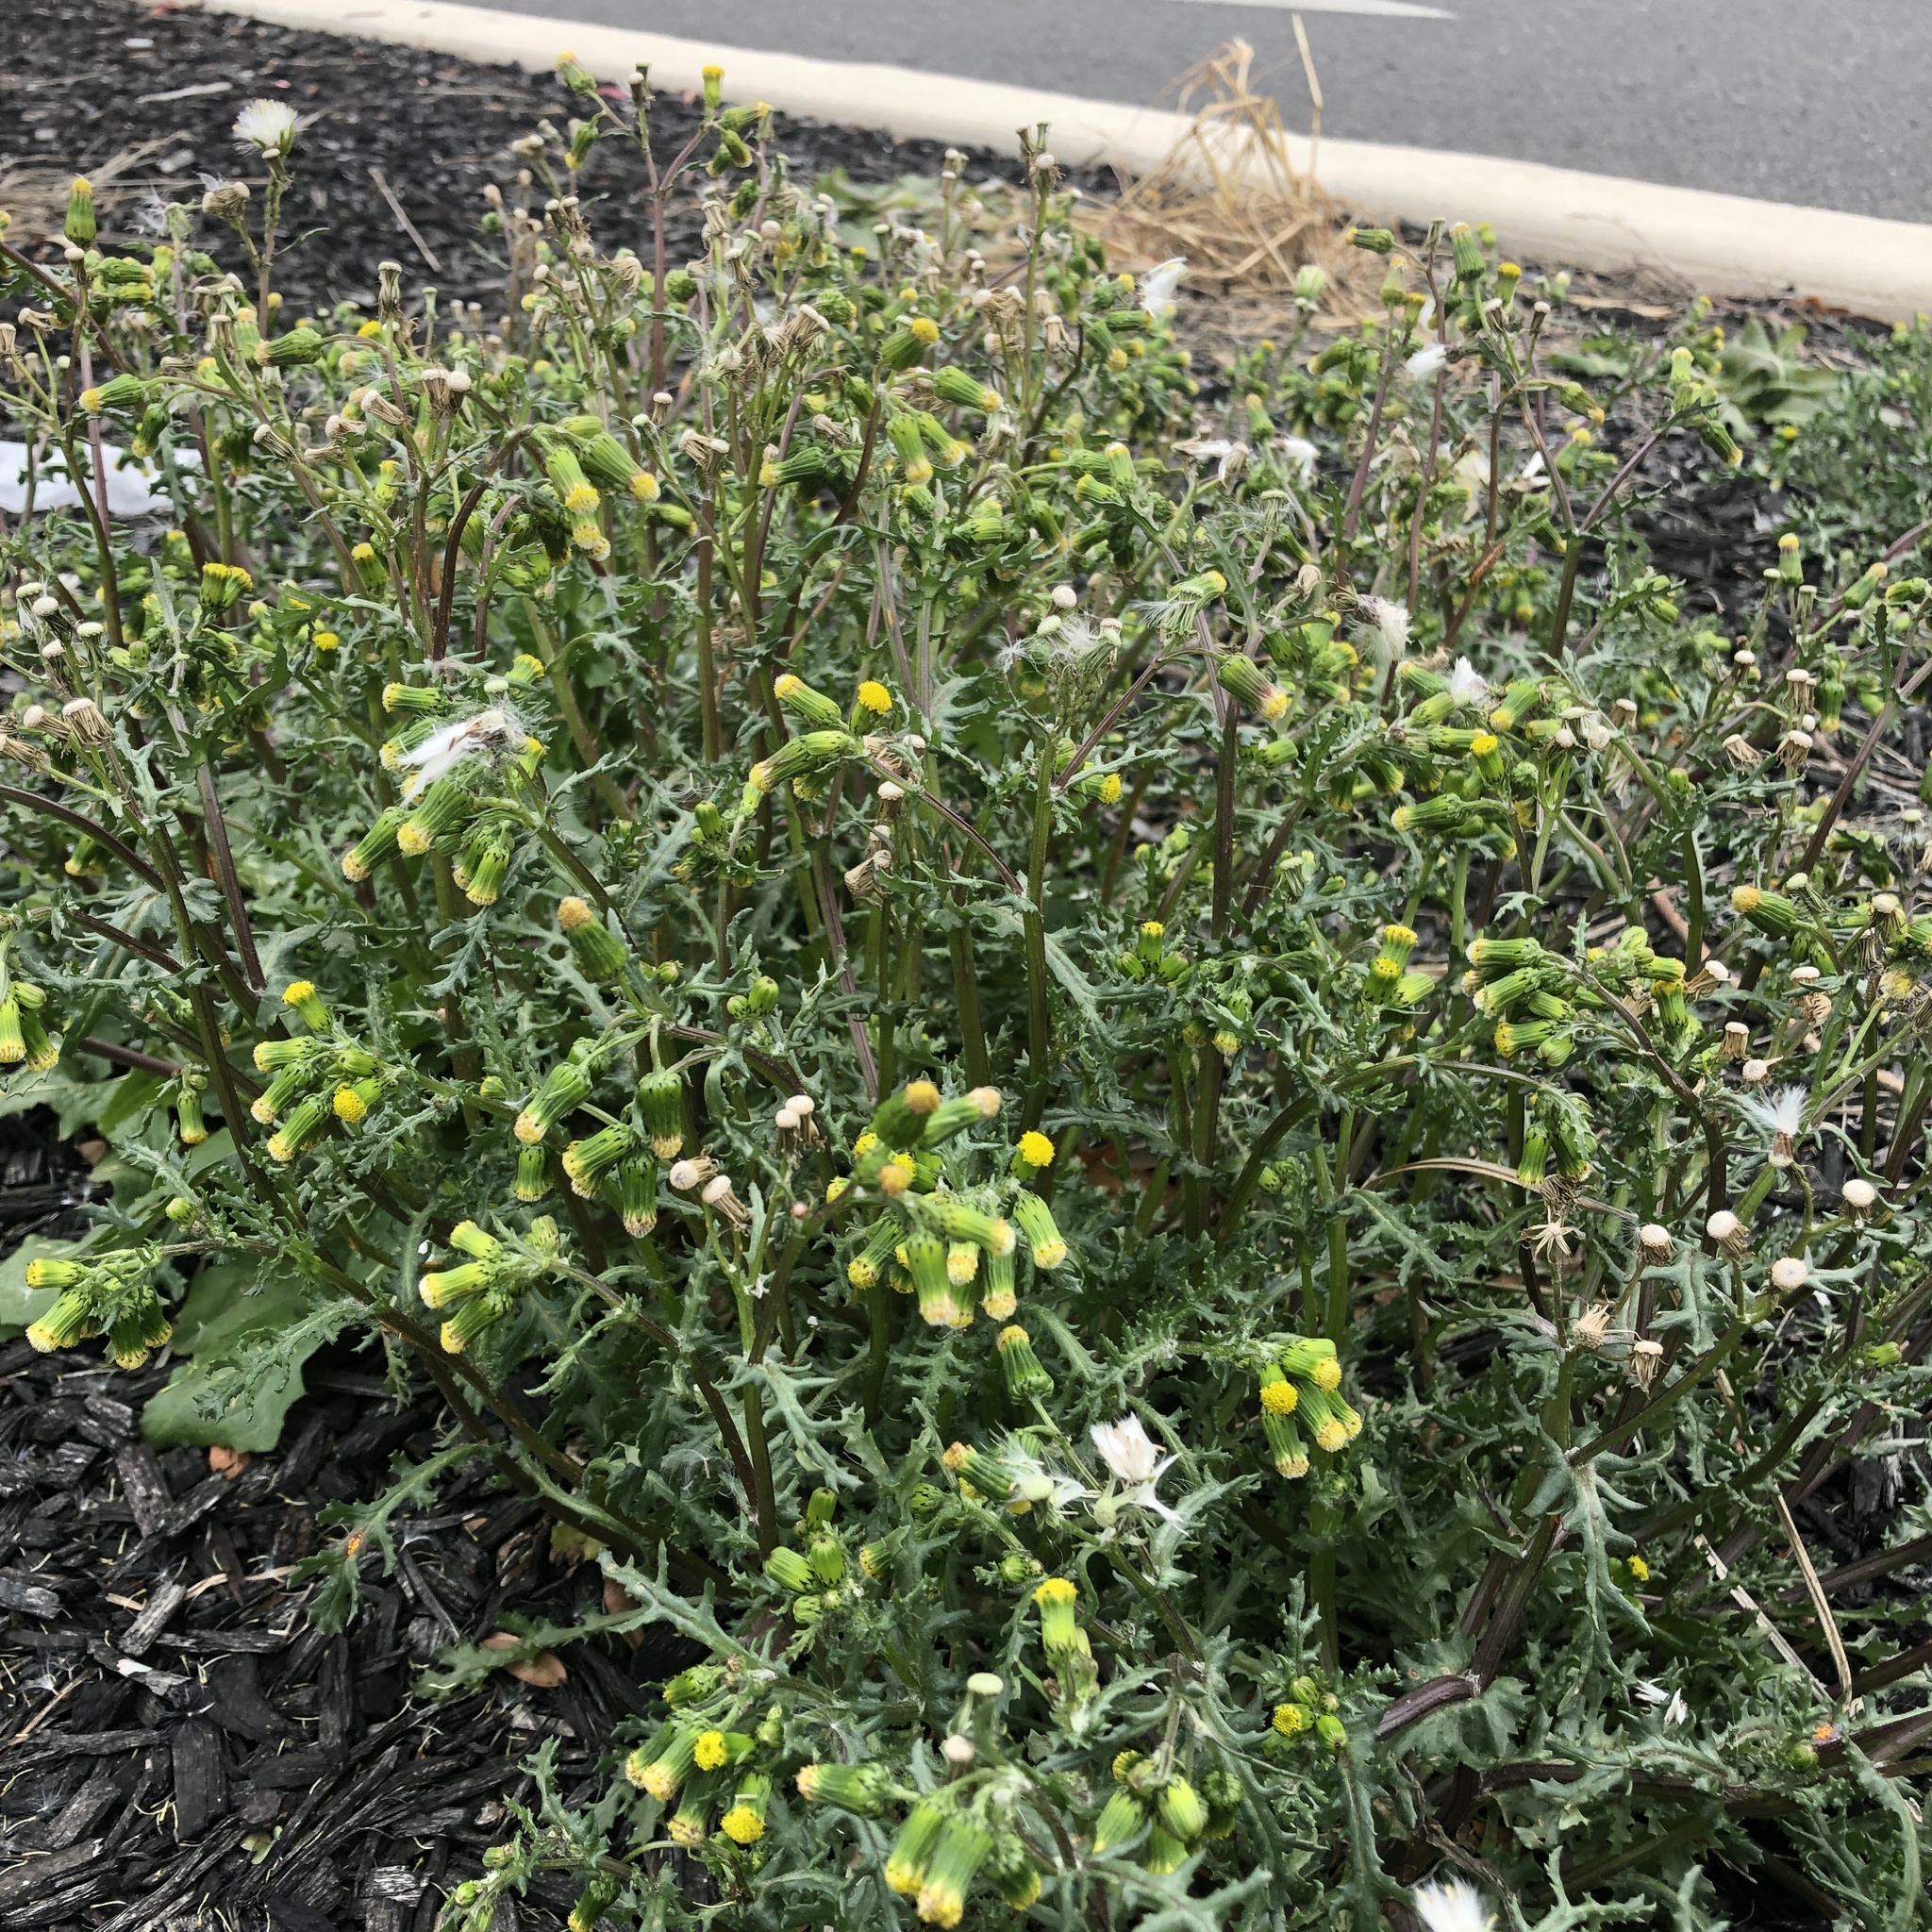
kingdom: Plantae
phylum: Tracheophyta
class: Magnoliopsida
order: Asterales
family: Asteraceae
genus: Senecio
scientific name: Senecio vulgaris
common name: Old-man-in-the-spring
